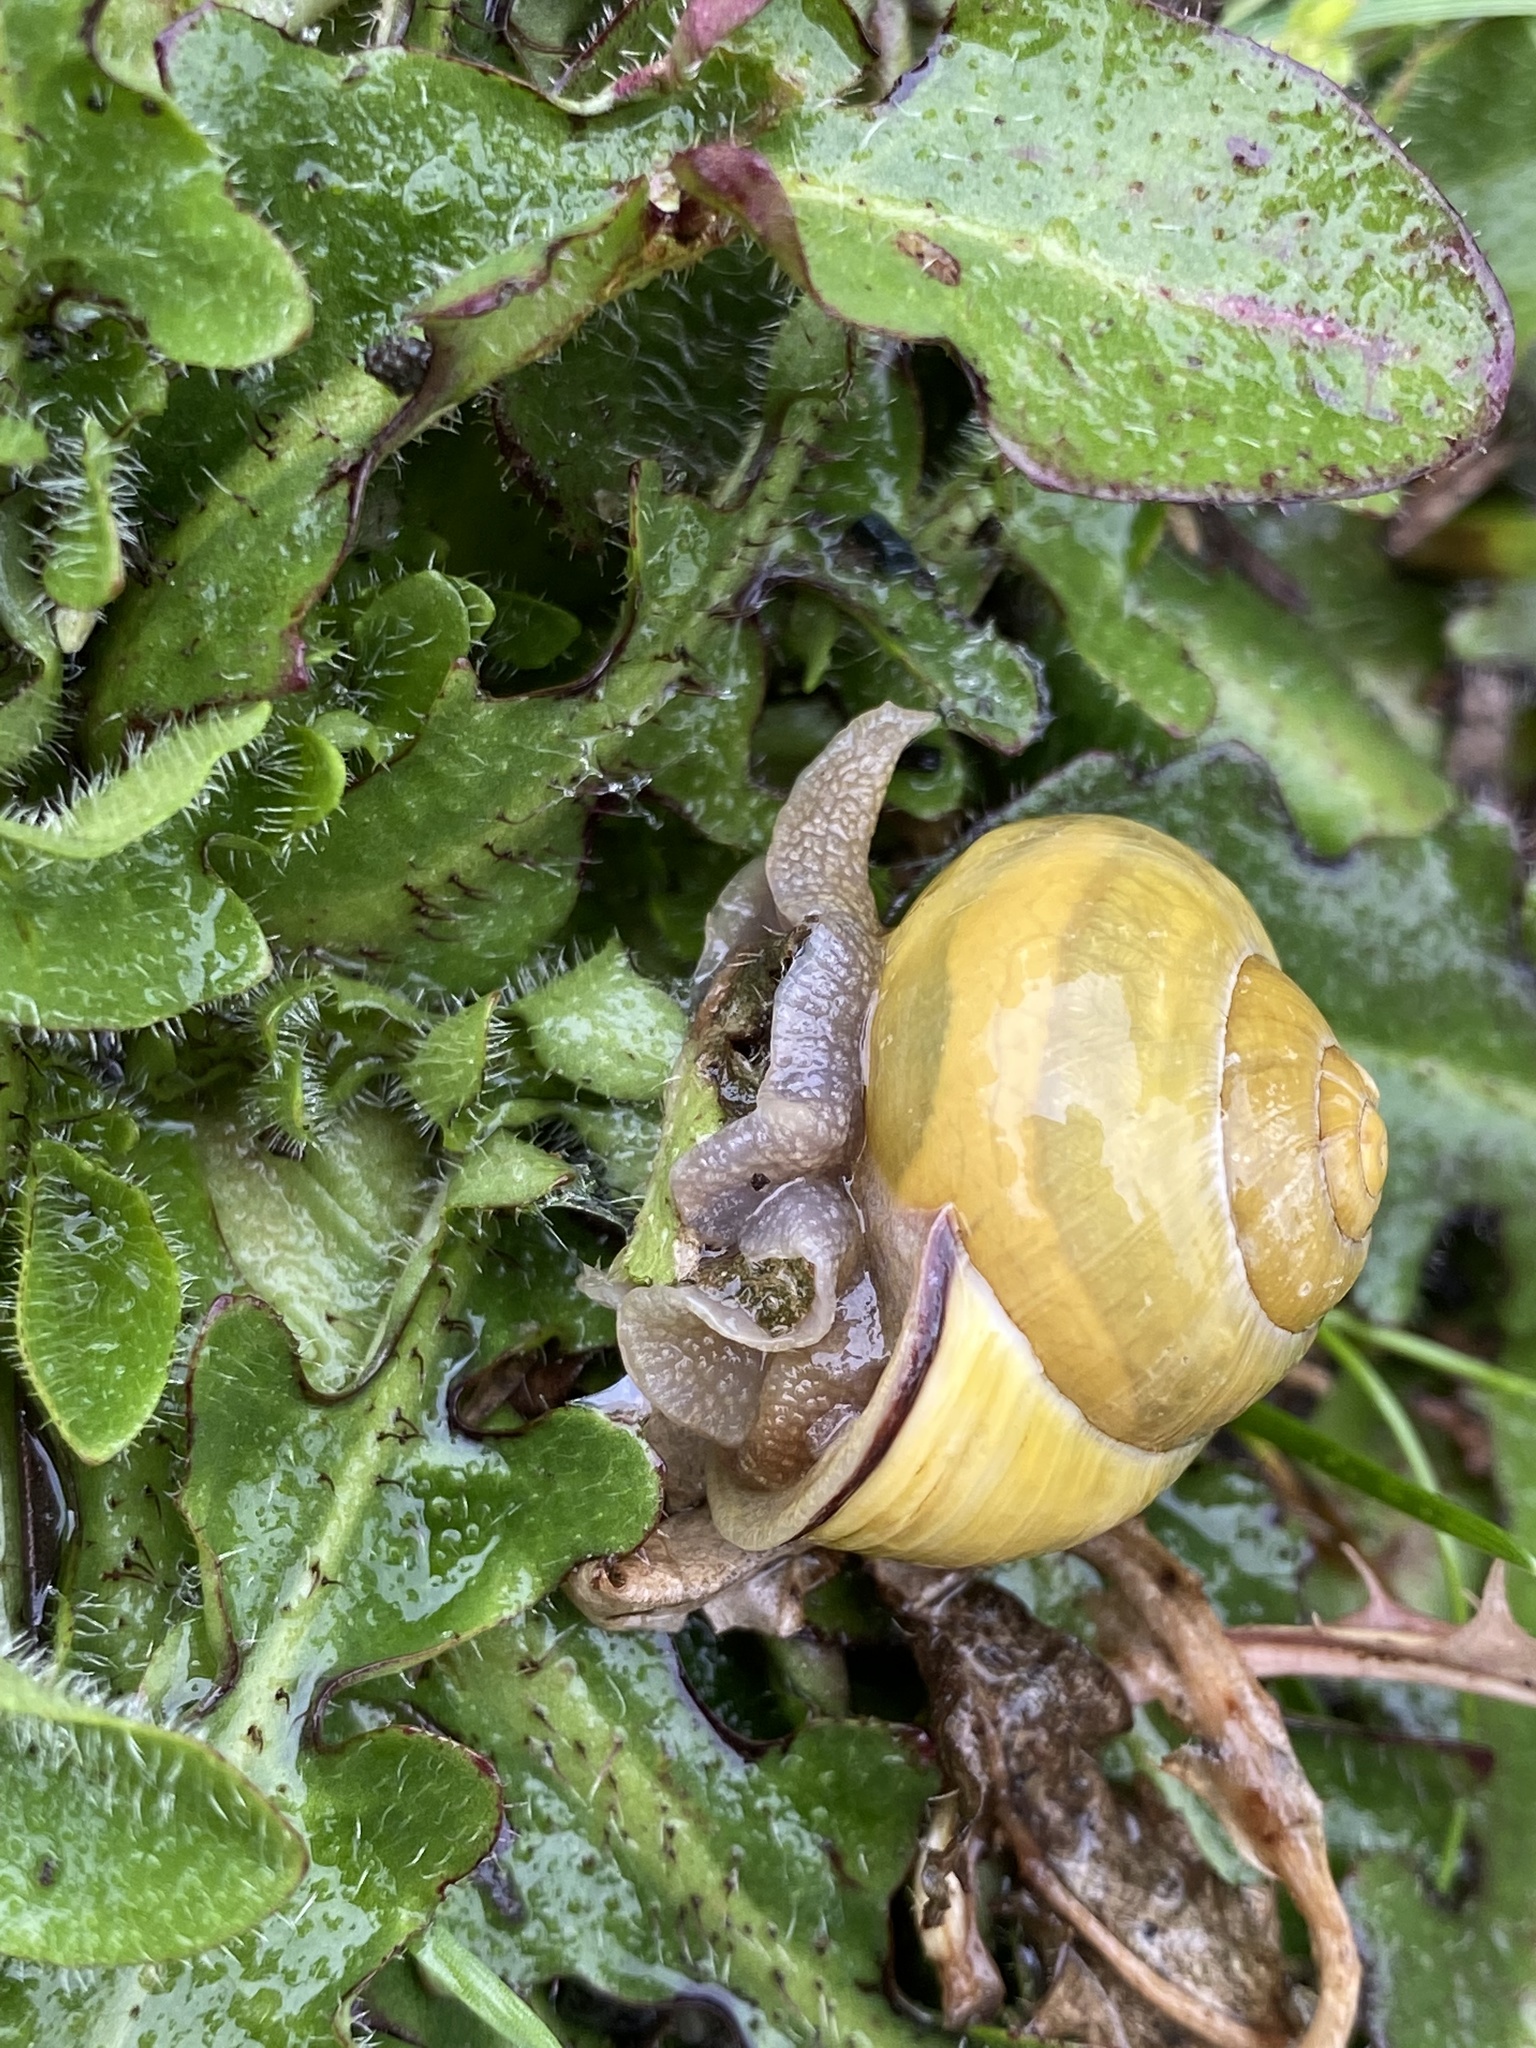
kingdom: Animalia
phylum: Mollusca
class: Gastropoda
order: Stylommatophora
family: Helicidae
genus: Cepaea
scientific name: Cepaea nemoralis
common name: Grovesnail
